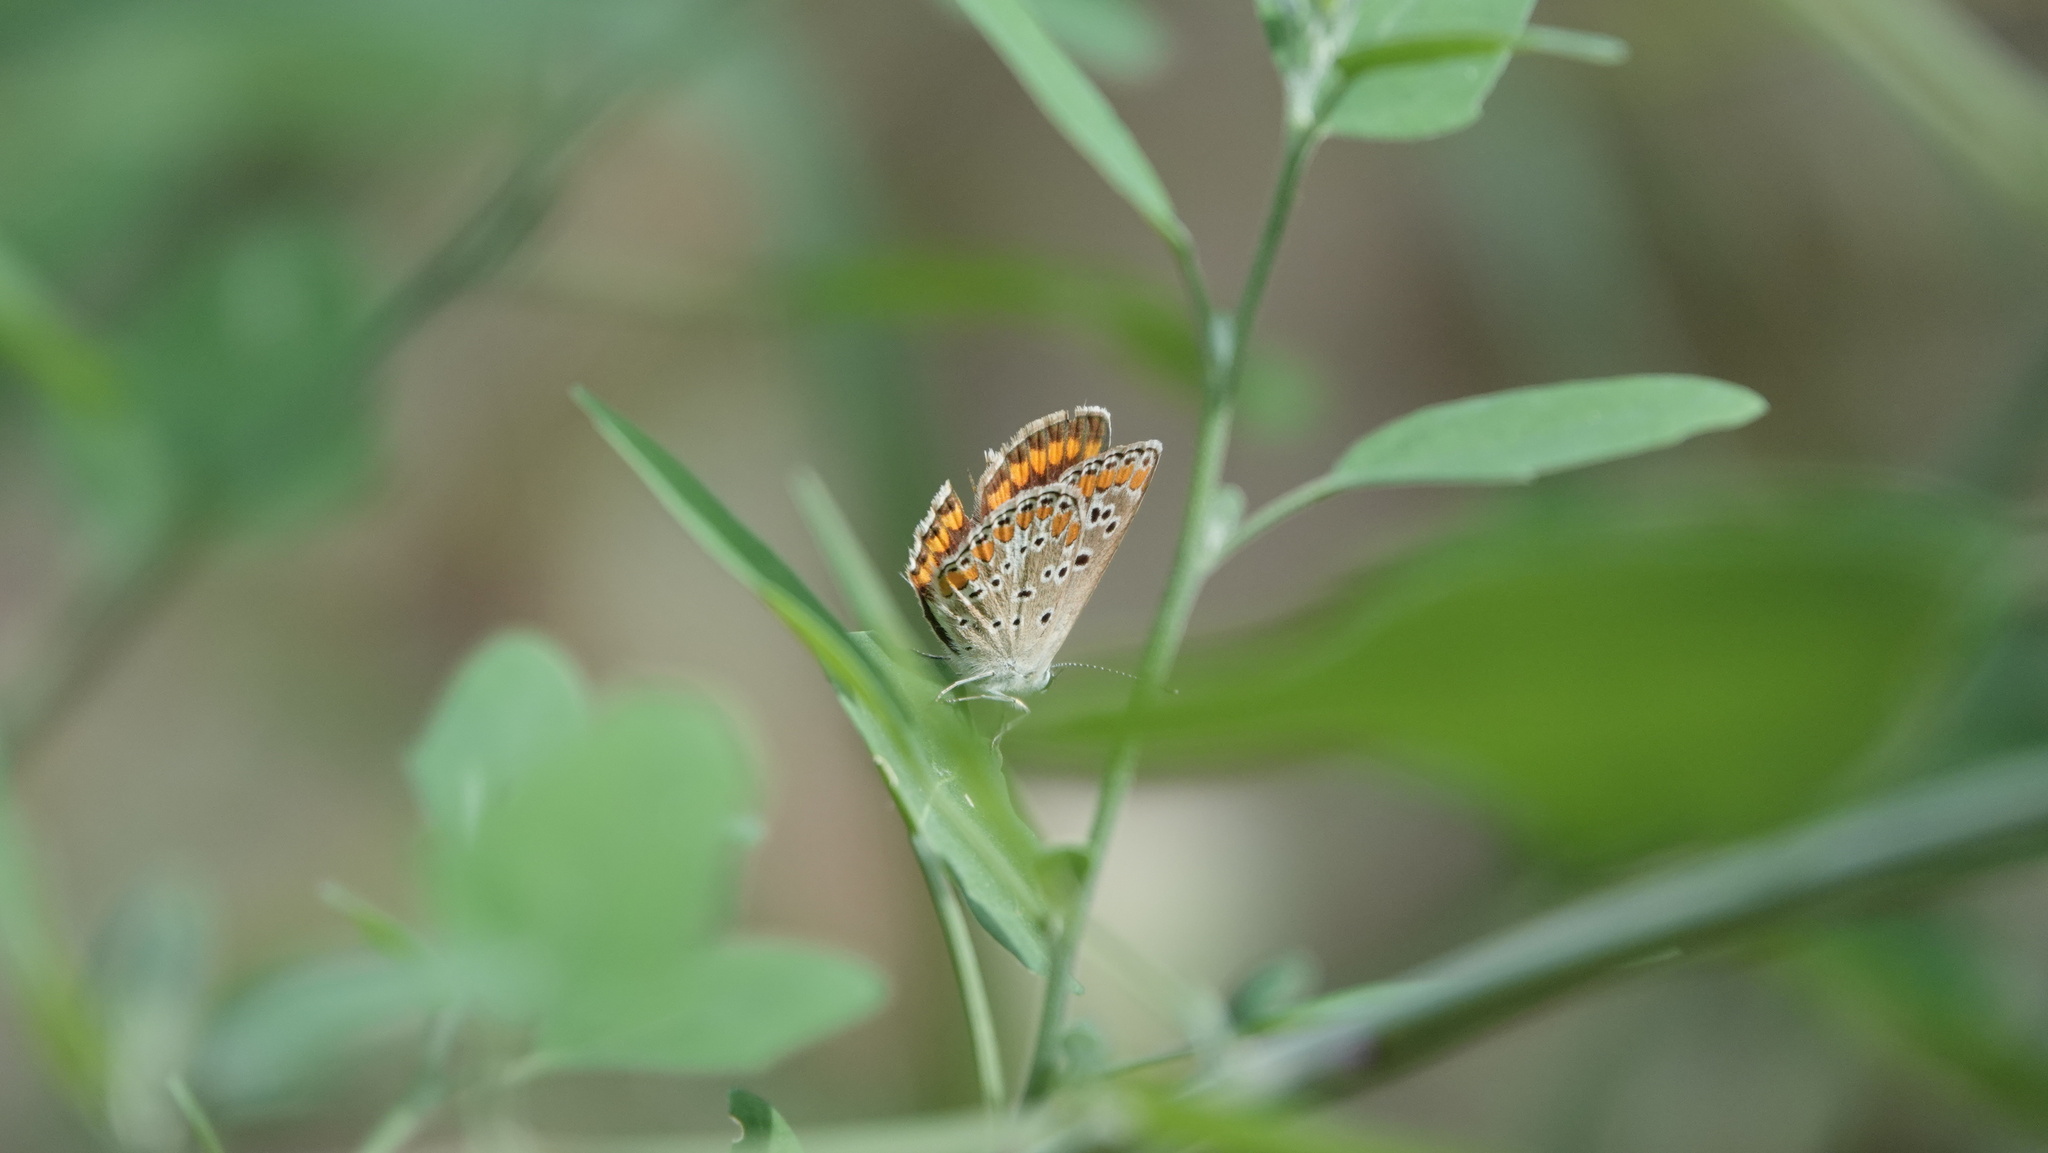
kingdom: Animalia
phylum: Arthropoda
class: Insecta
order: Lepidoptera
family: Lycaenidae
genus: Aricia
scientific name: Aricia agestis
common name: Brown argus
